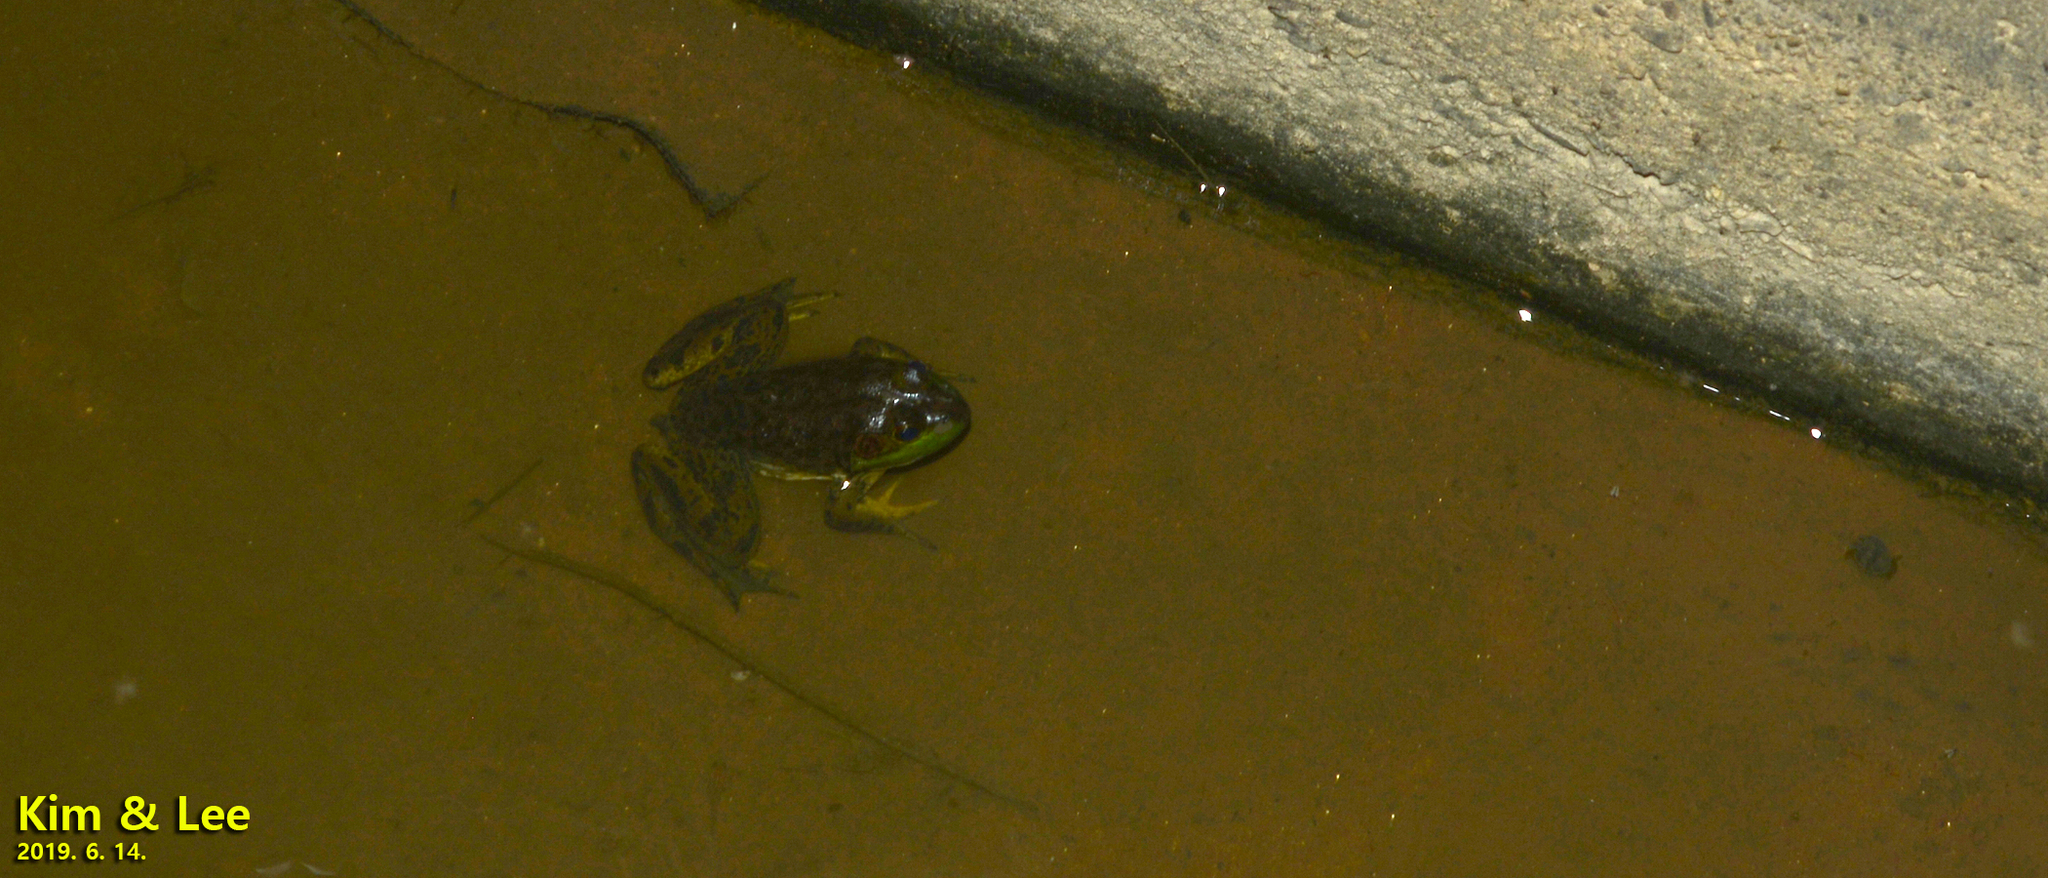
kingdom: Animalia
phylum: Chordata
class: Amphibia
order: Anura
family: Ranidae
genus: Lithobates
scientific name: Lithobates catesbeianus
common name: American bullfrog
